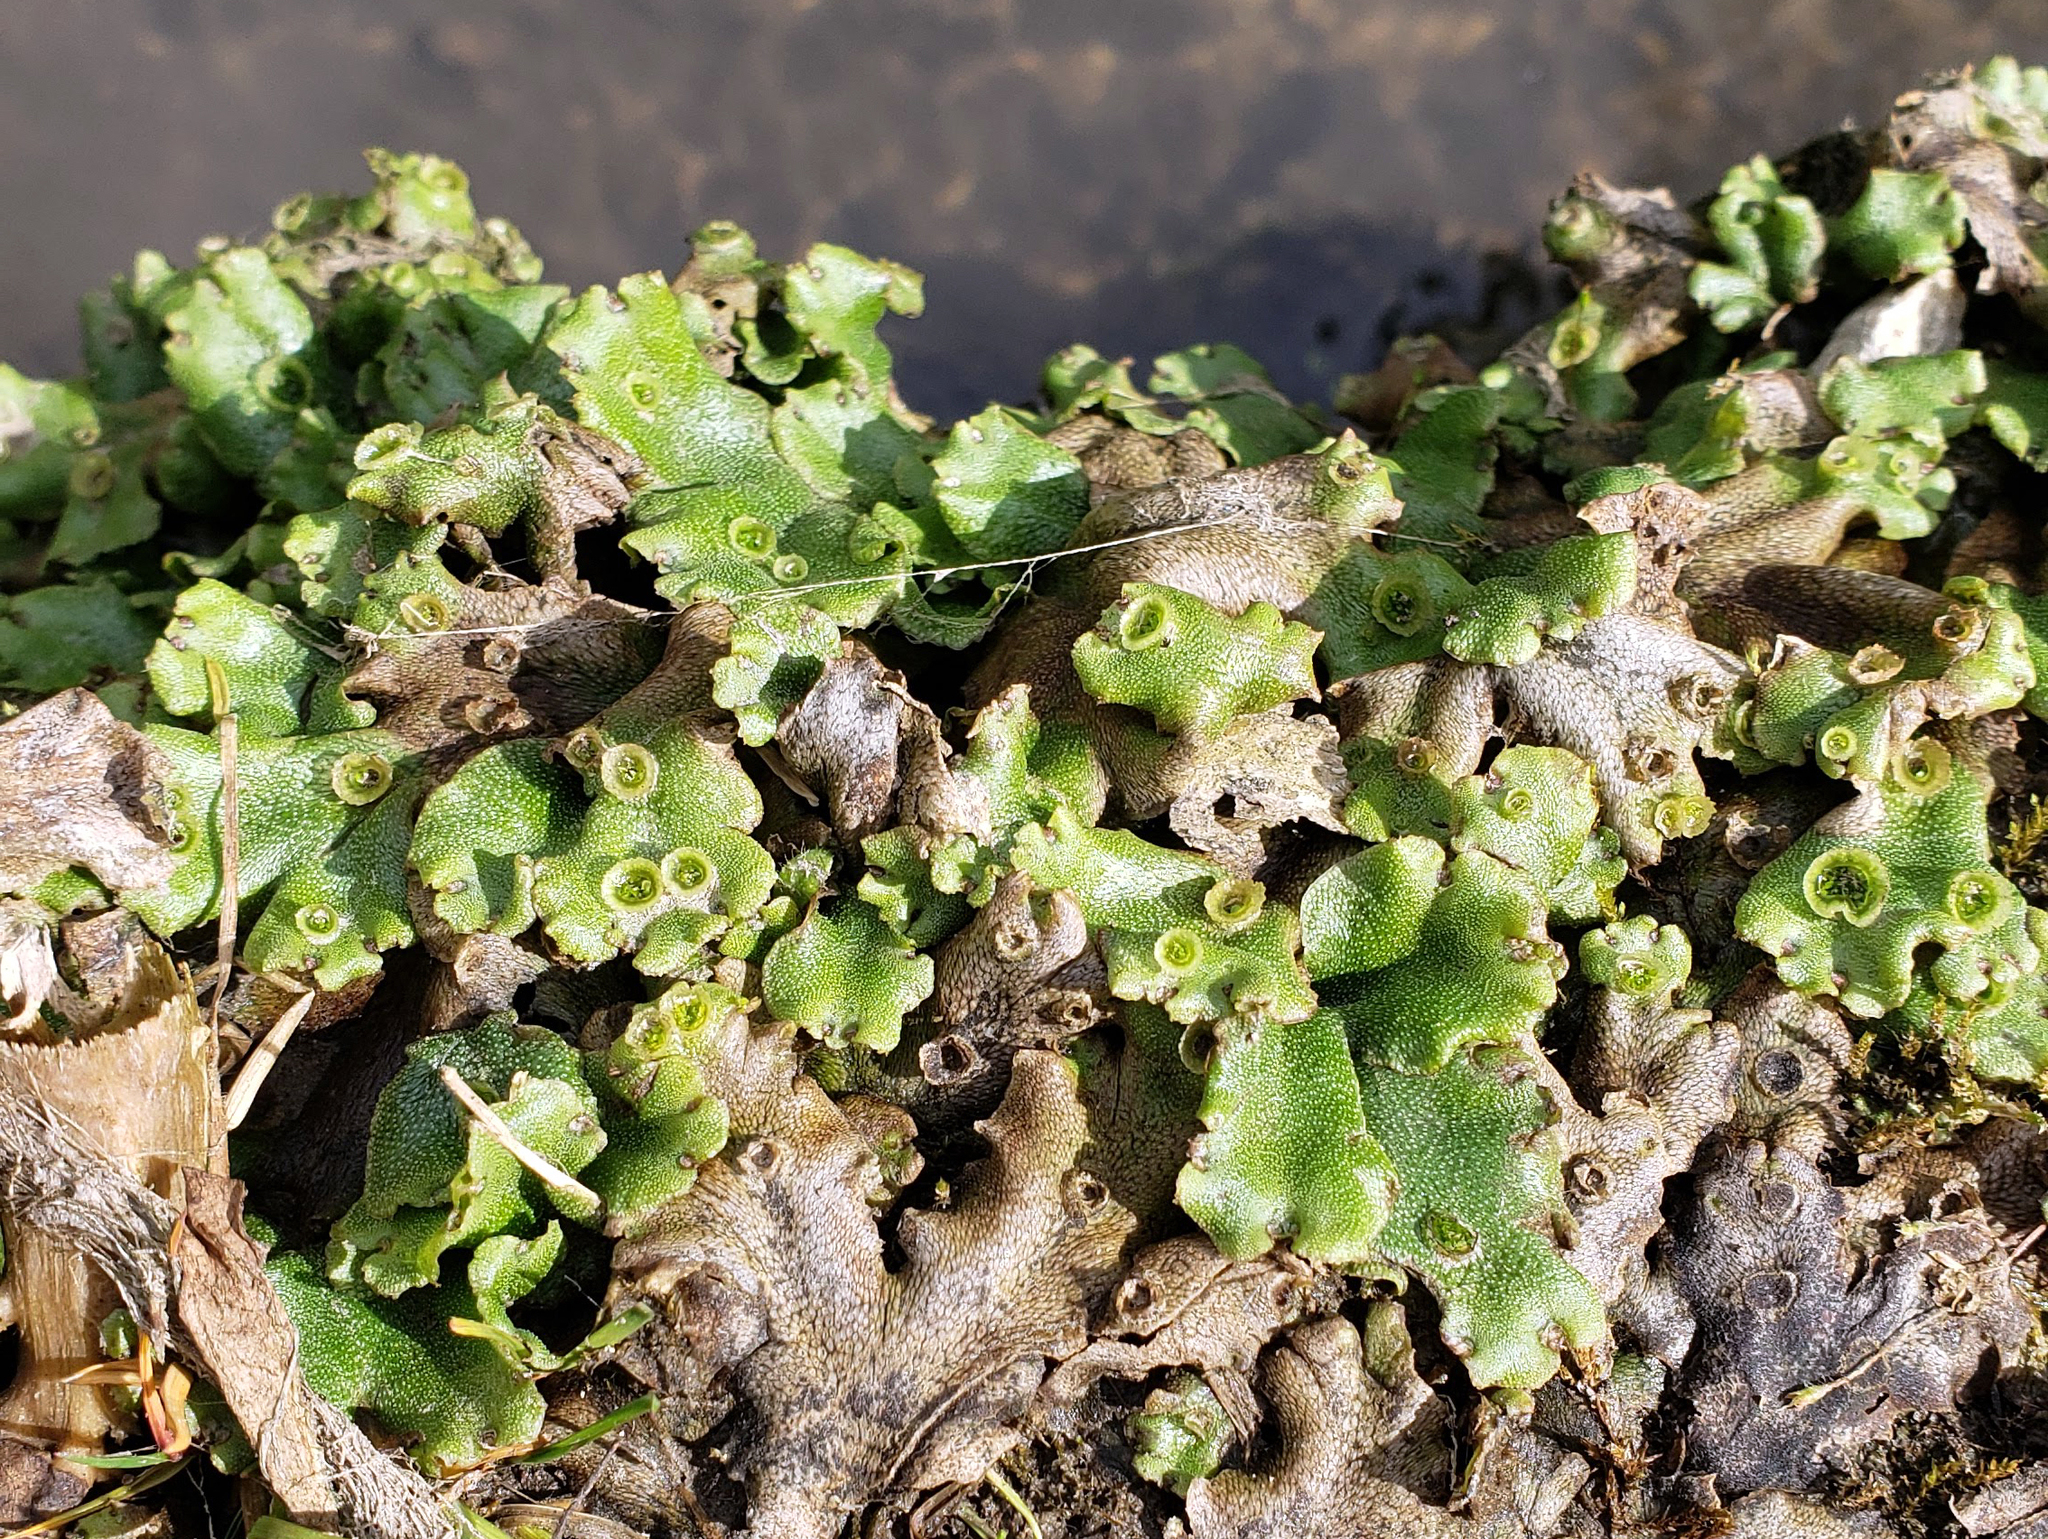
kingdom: Plantae
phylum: Marchantiophyta
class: Marchantiopsida
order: Marchantiales
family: Marchantiaceae
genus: Marchantia
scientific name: Marchantia polymorpha
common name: Common liverwort
